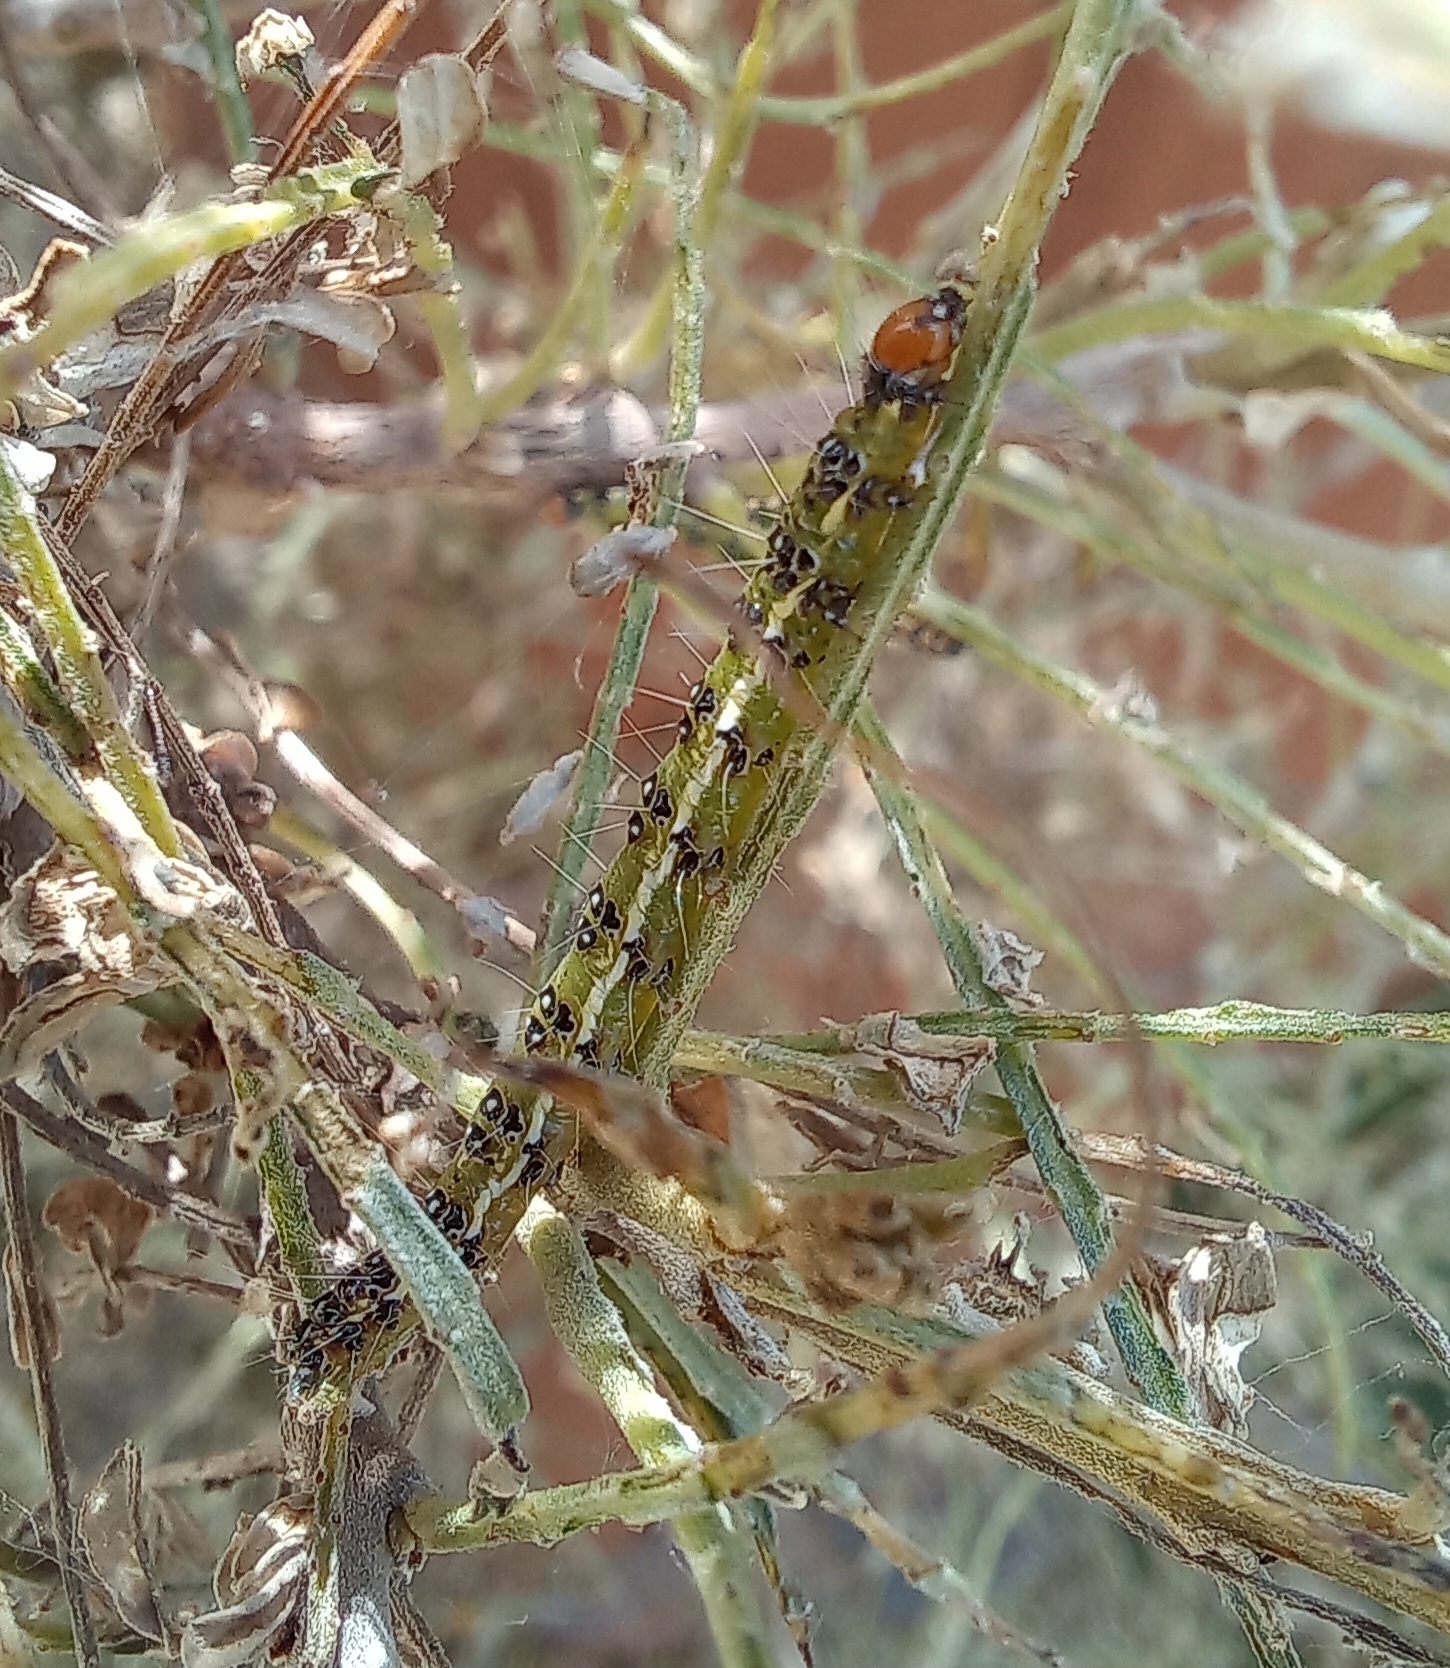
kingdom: Animalia
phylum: Arthropoda
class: Insecta
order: Lepidoptera
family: Crambidae
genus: Uresiphita
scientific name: Uresiphita
